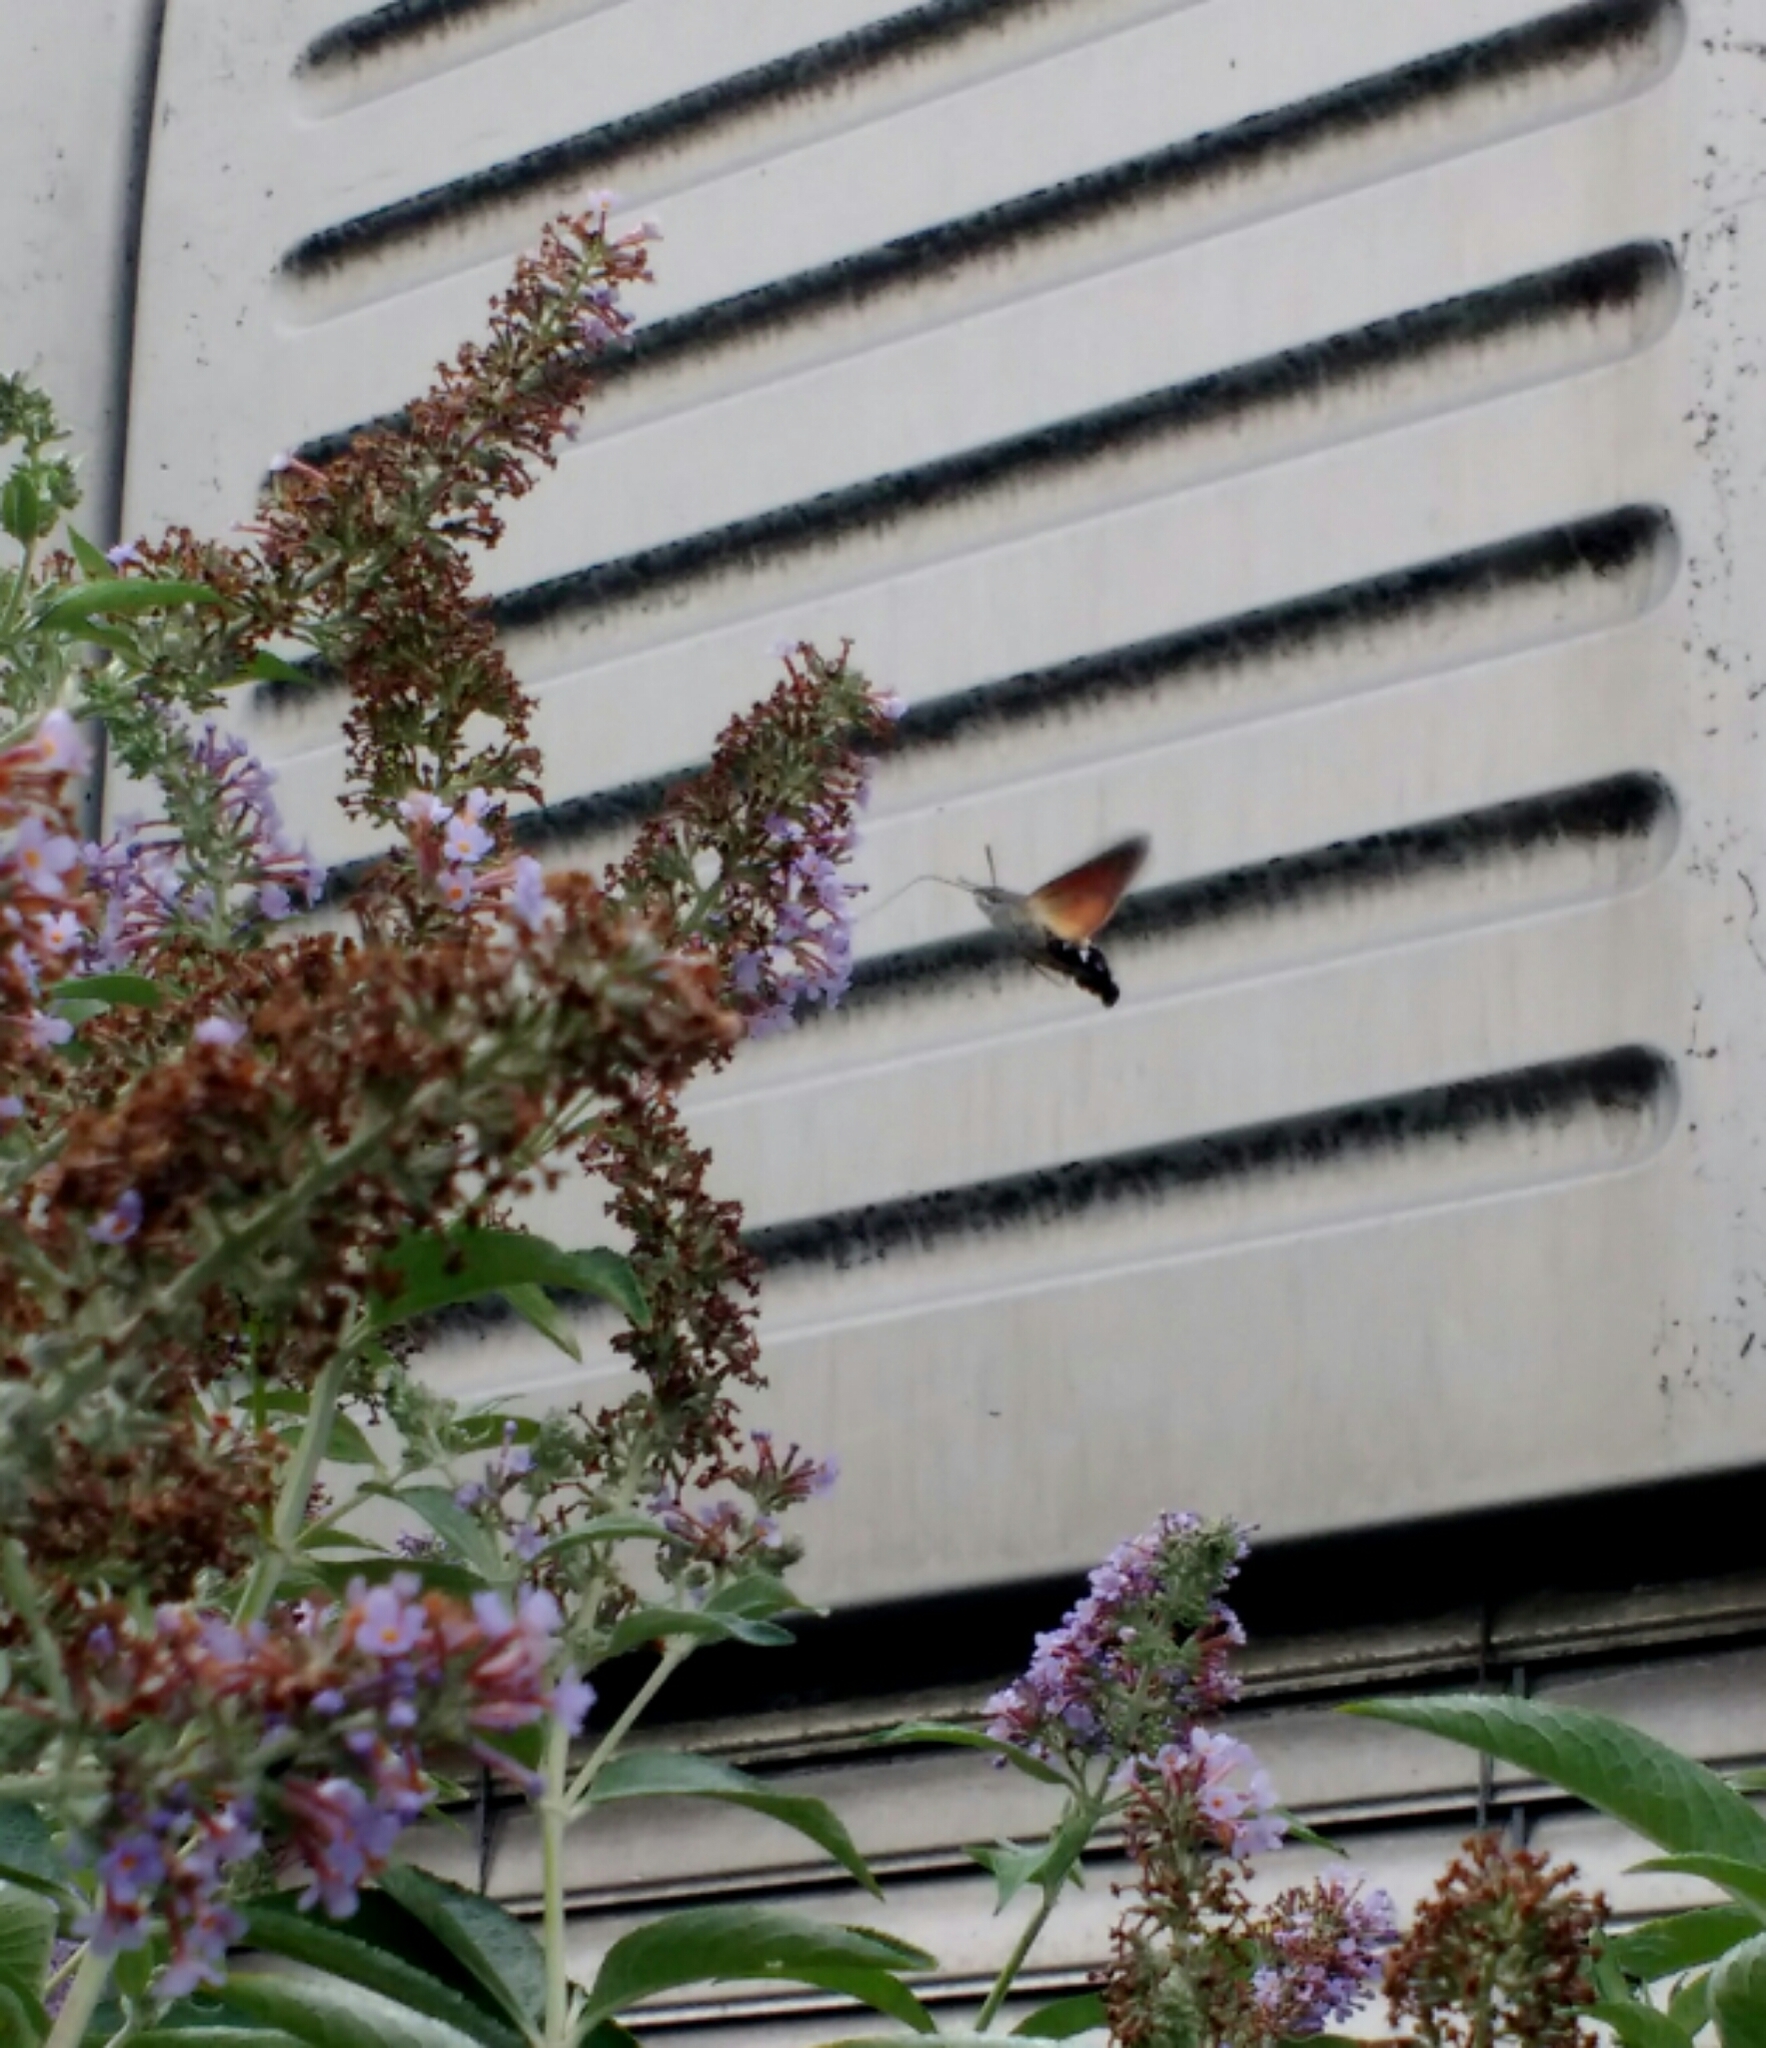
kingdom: Animalia
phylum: Arthropoda
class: Insecta
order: Lepidoptera
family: Sphingidae
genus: Macroglossum
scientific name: Macroglossum stellatarum
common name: Humming-bird hawk-moth
